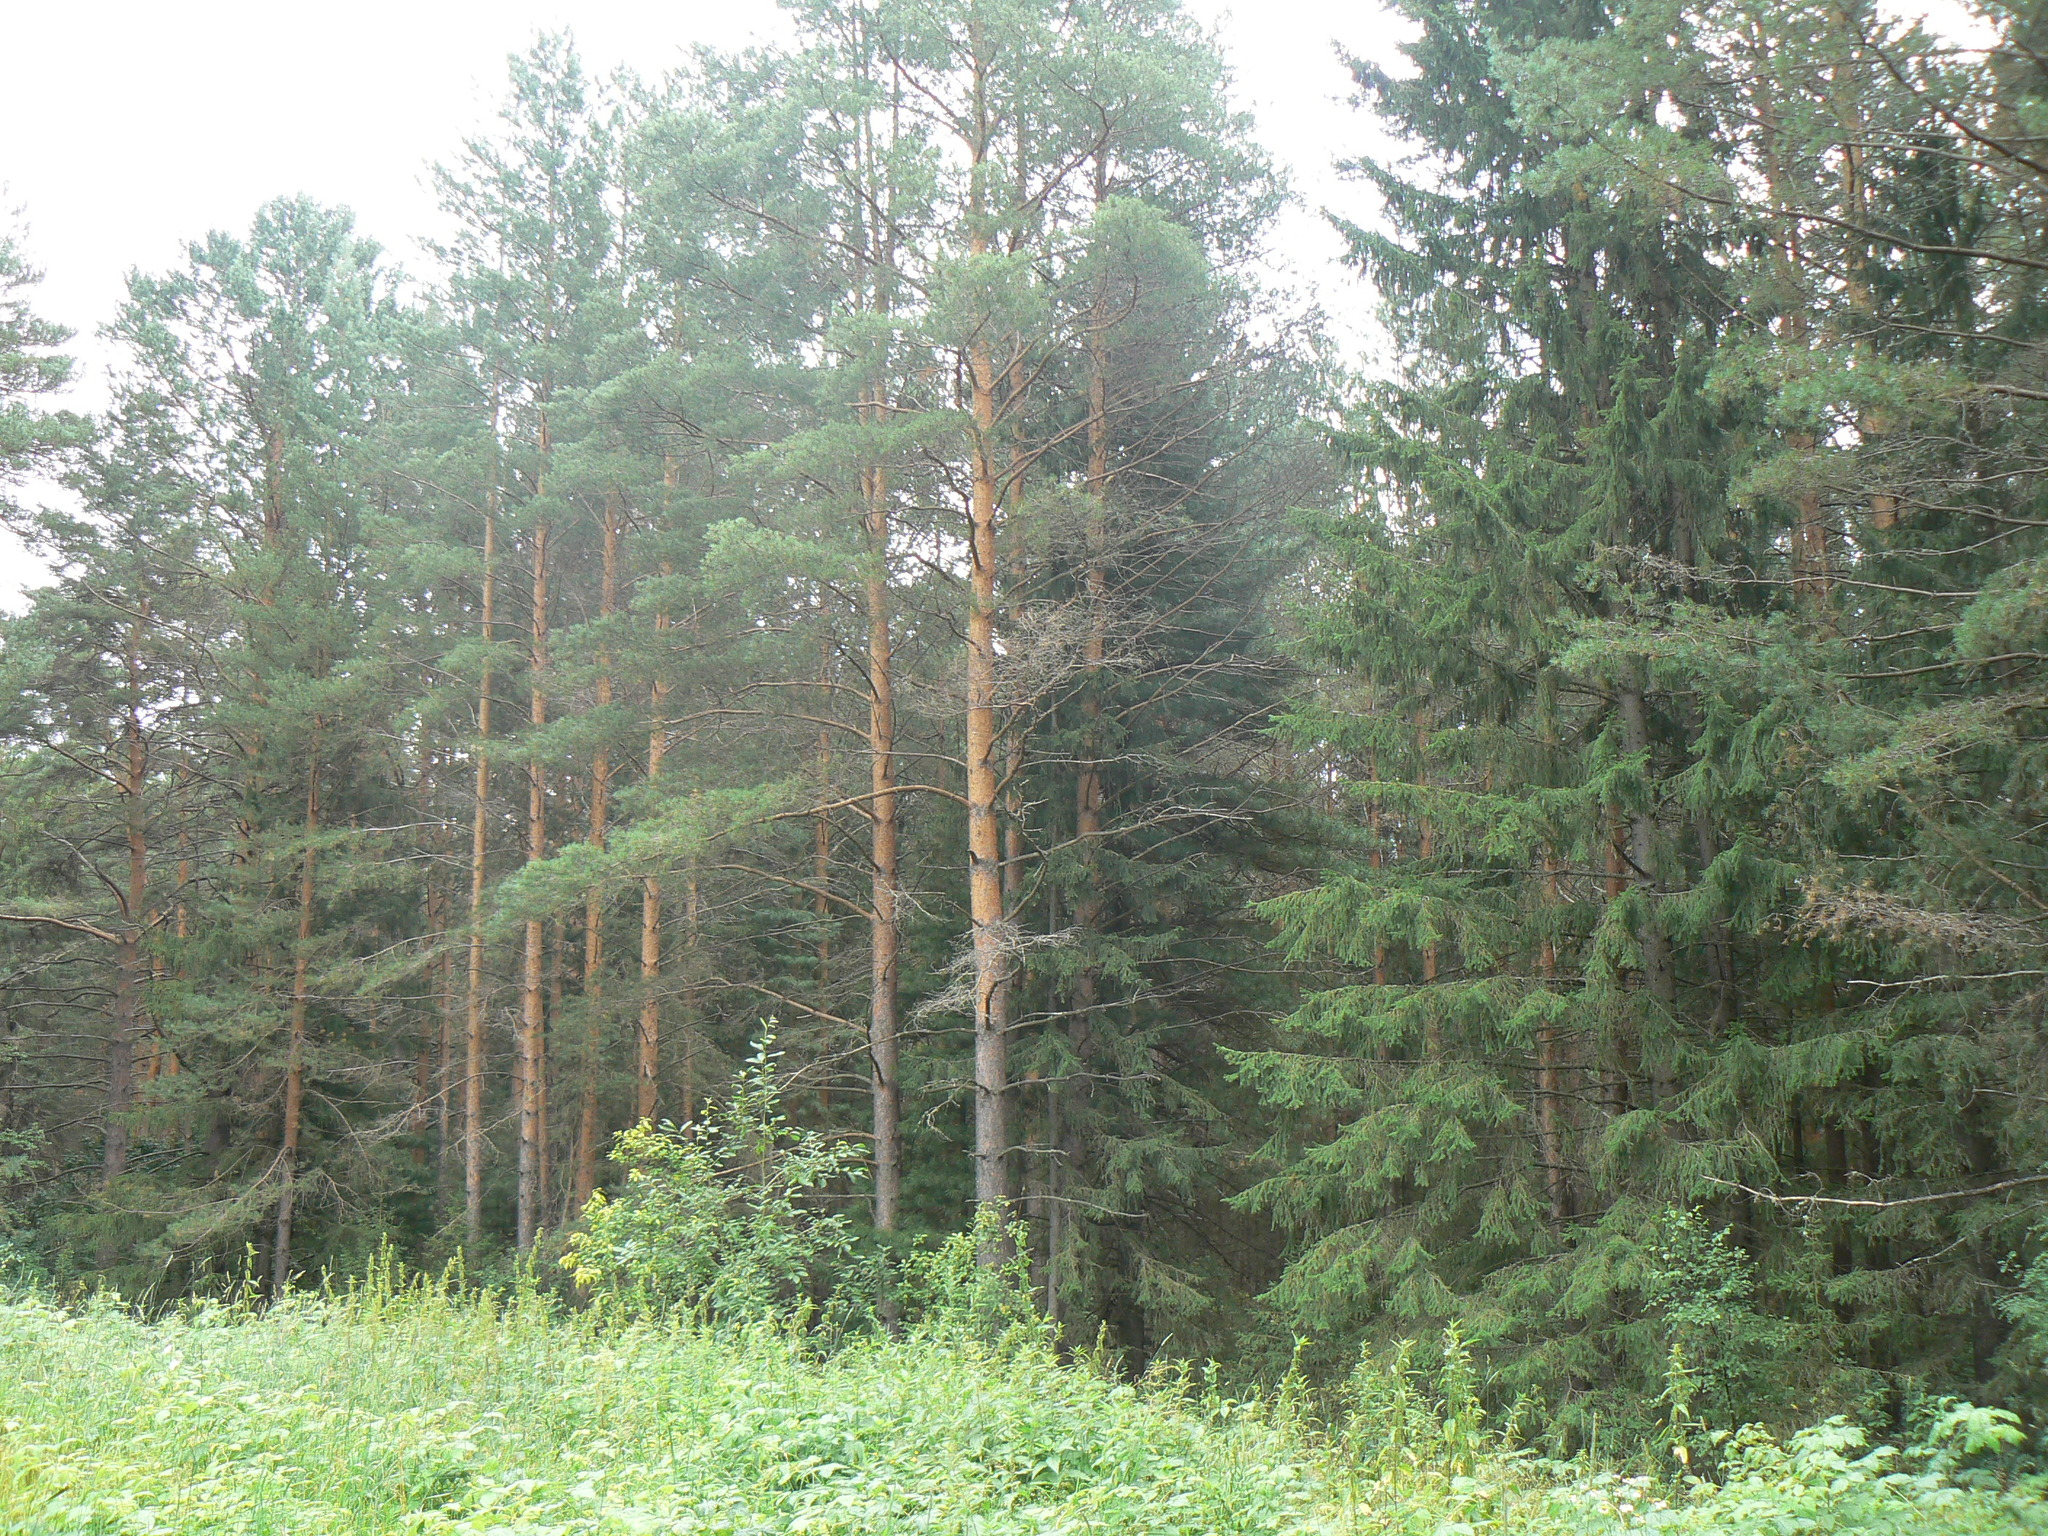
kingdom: Plantae
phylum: Tracheophyta
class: Pinopsida
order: Pinales
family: Pinaceae
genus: Picea
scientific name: Picea obovata
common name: Siberian spruce
